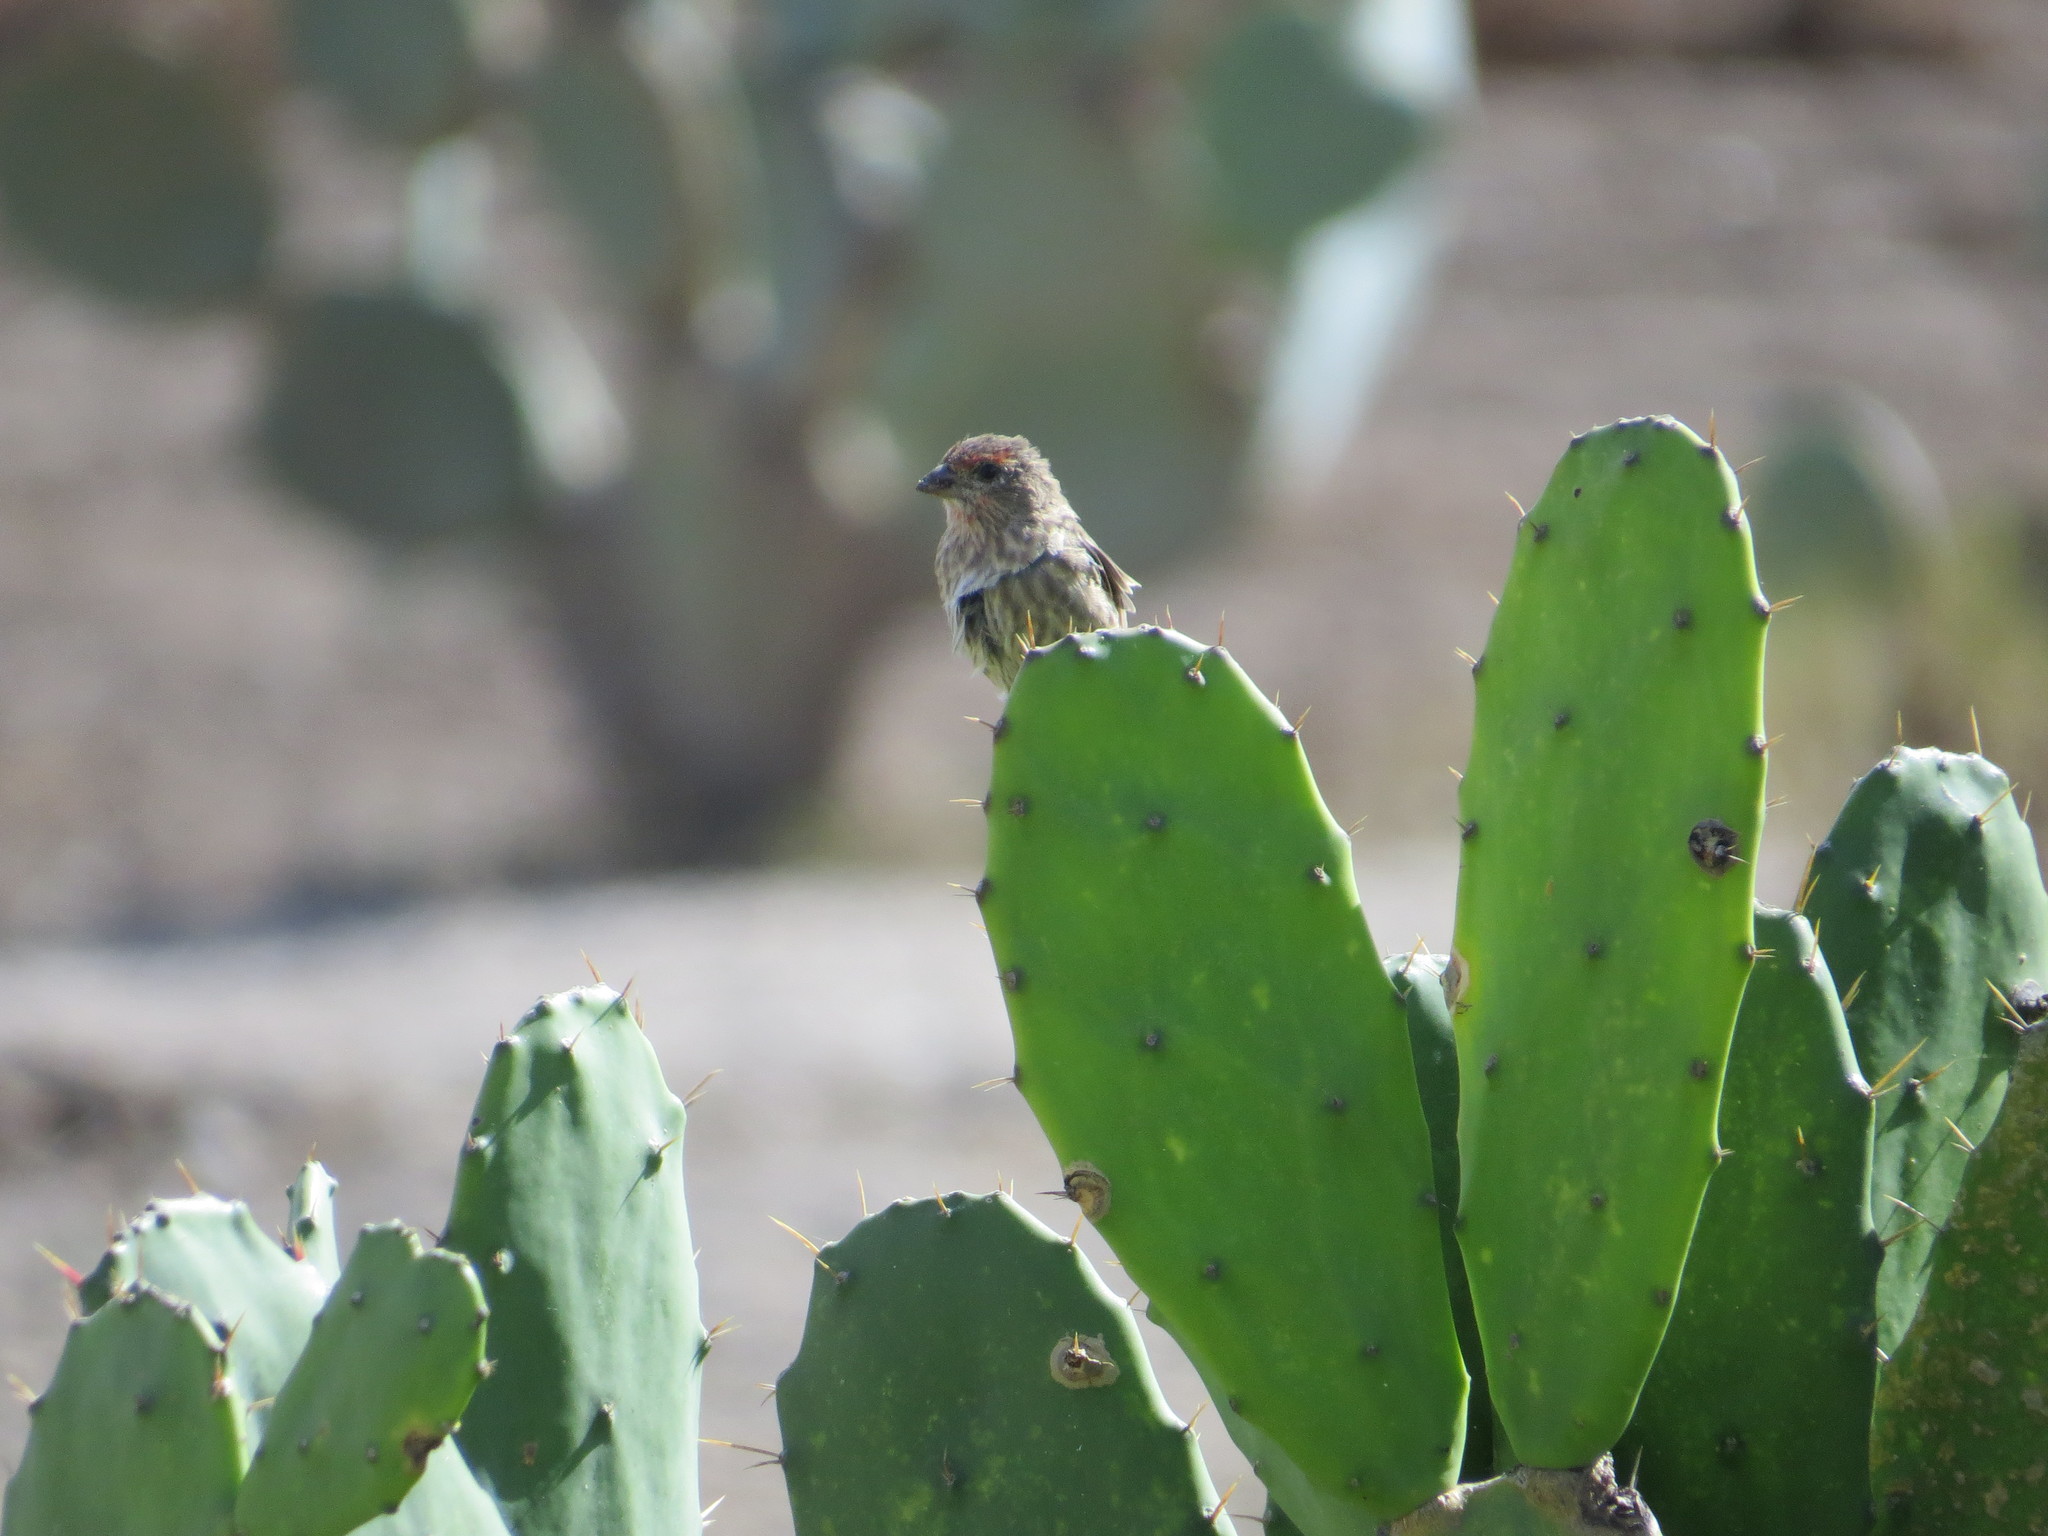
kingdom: Animalia
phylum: Chordata
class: Aves
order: Passeriformes
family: Fringillidae
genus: Haemorhous
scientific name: Haemorhous mexicanus
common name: House finch
